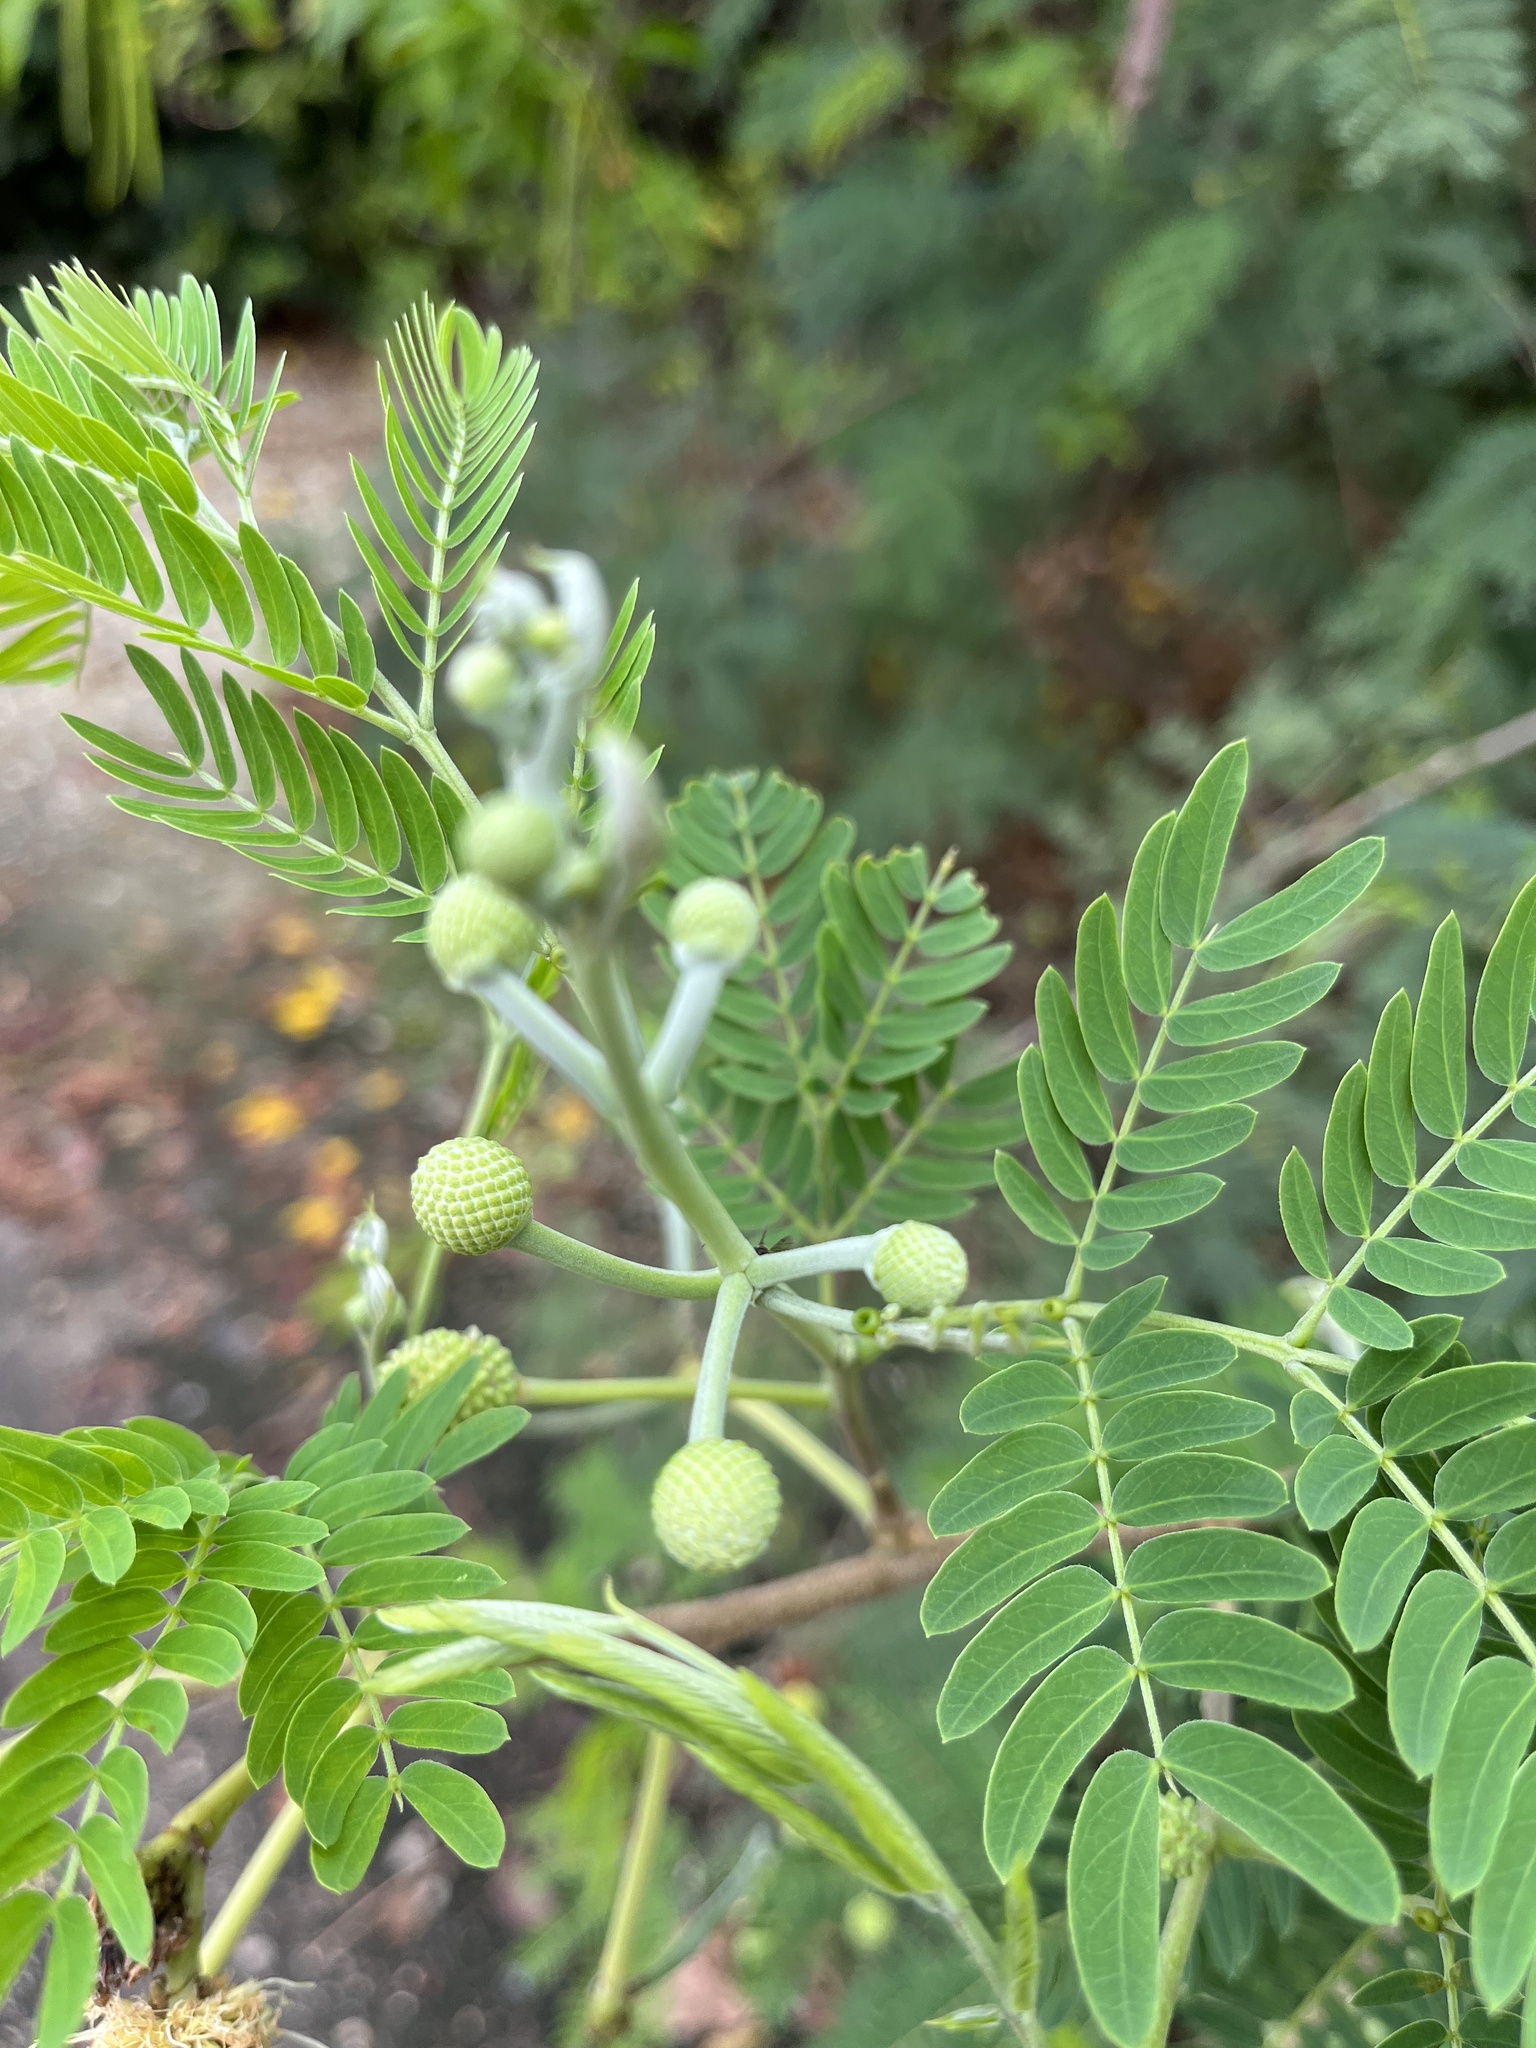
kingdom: Plantae
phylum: Tracheophyta
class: Magnoliopsida
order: Fabales
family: Fabaceae
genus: Leucaena
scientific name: Leucaena leucocephala
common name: White leadtree
